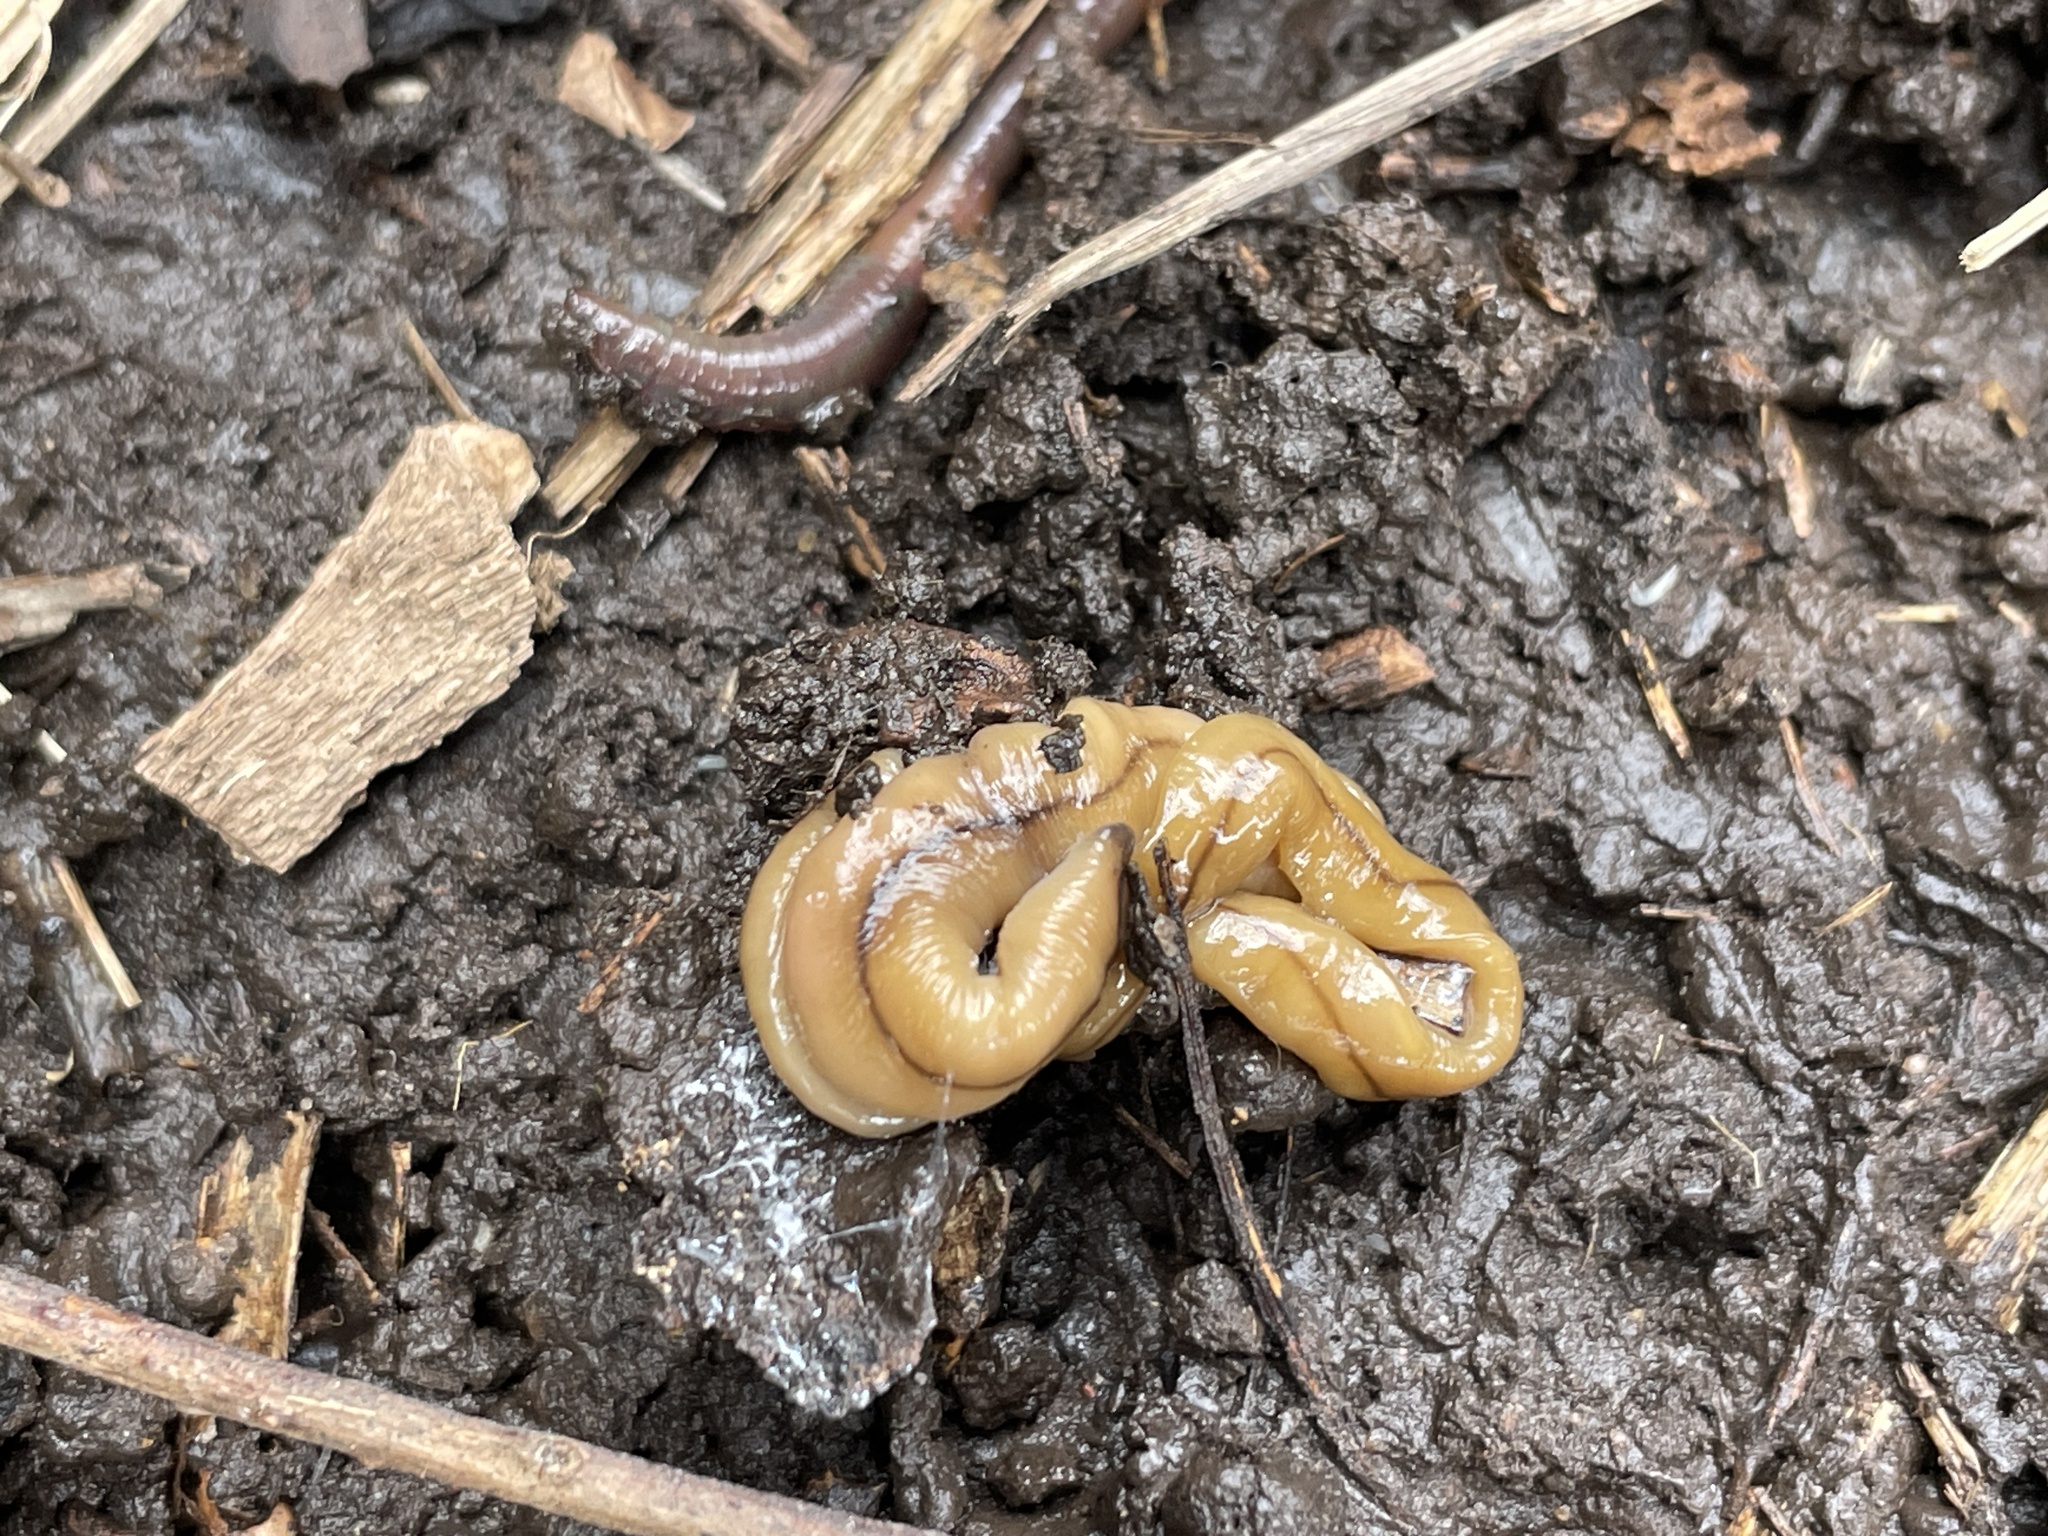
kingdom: Animalia
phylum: Platyhelminthes
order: Tricladida
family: Geoplanidae
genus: Bipalium
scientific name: Bipalium adventitium
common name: Land planarian
